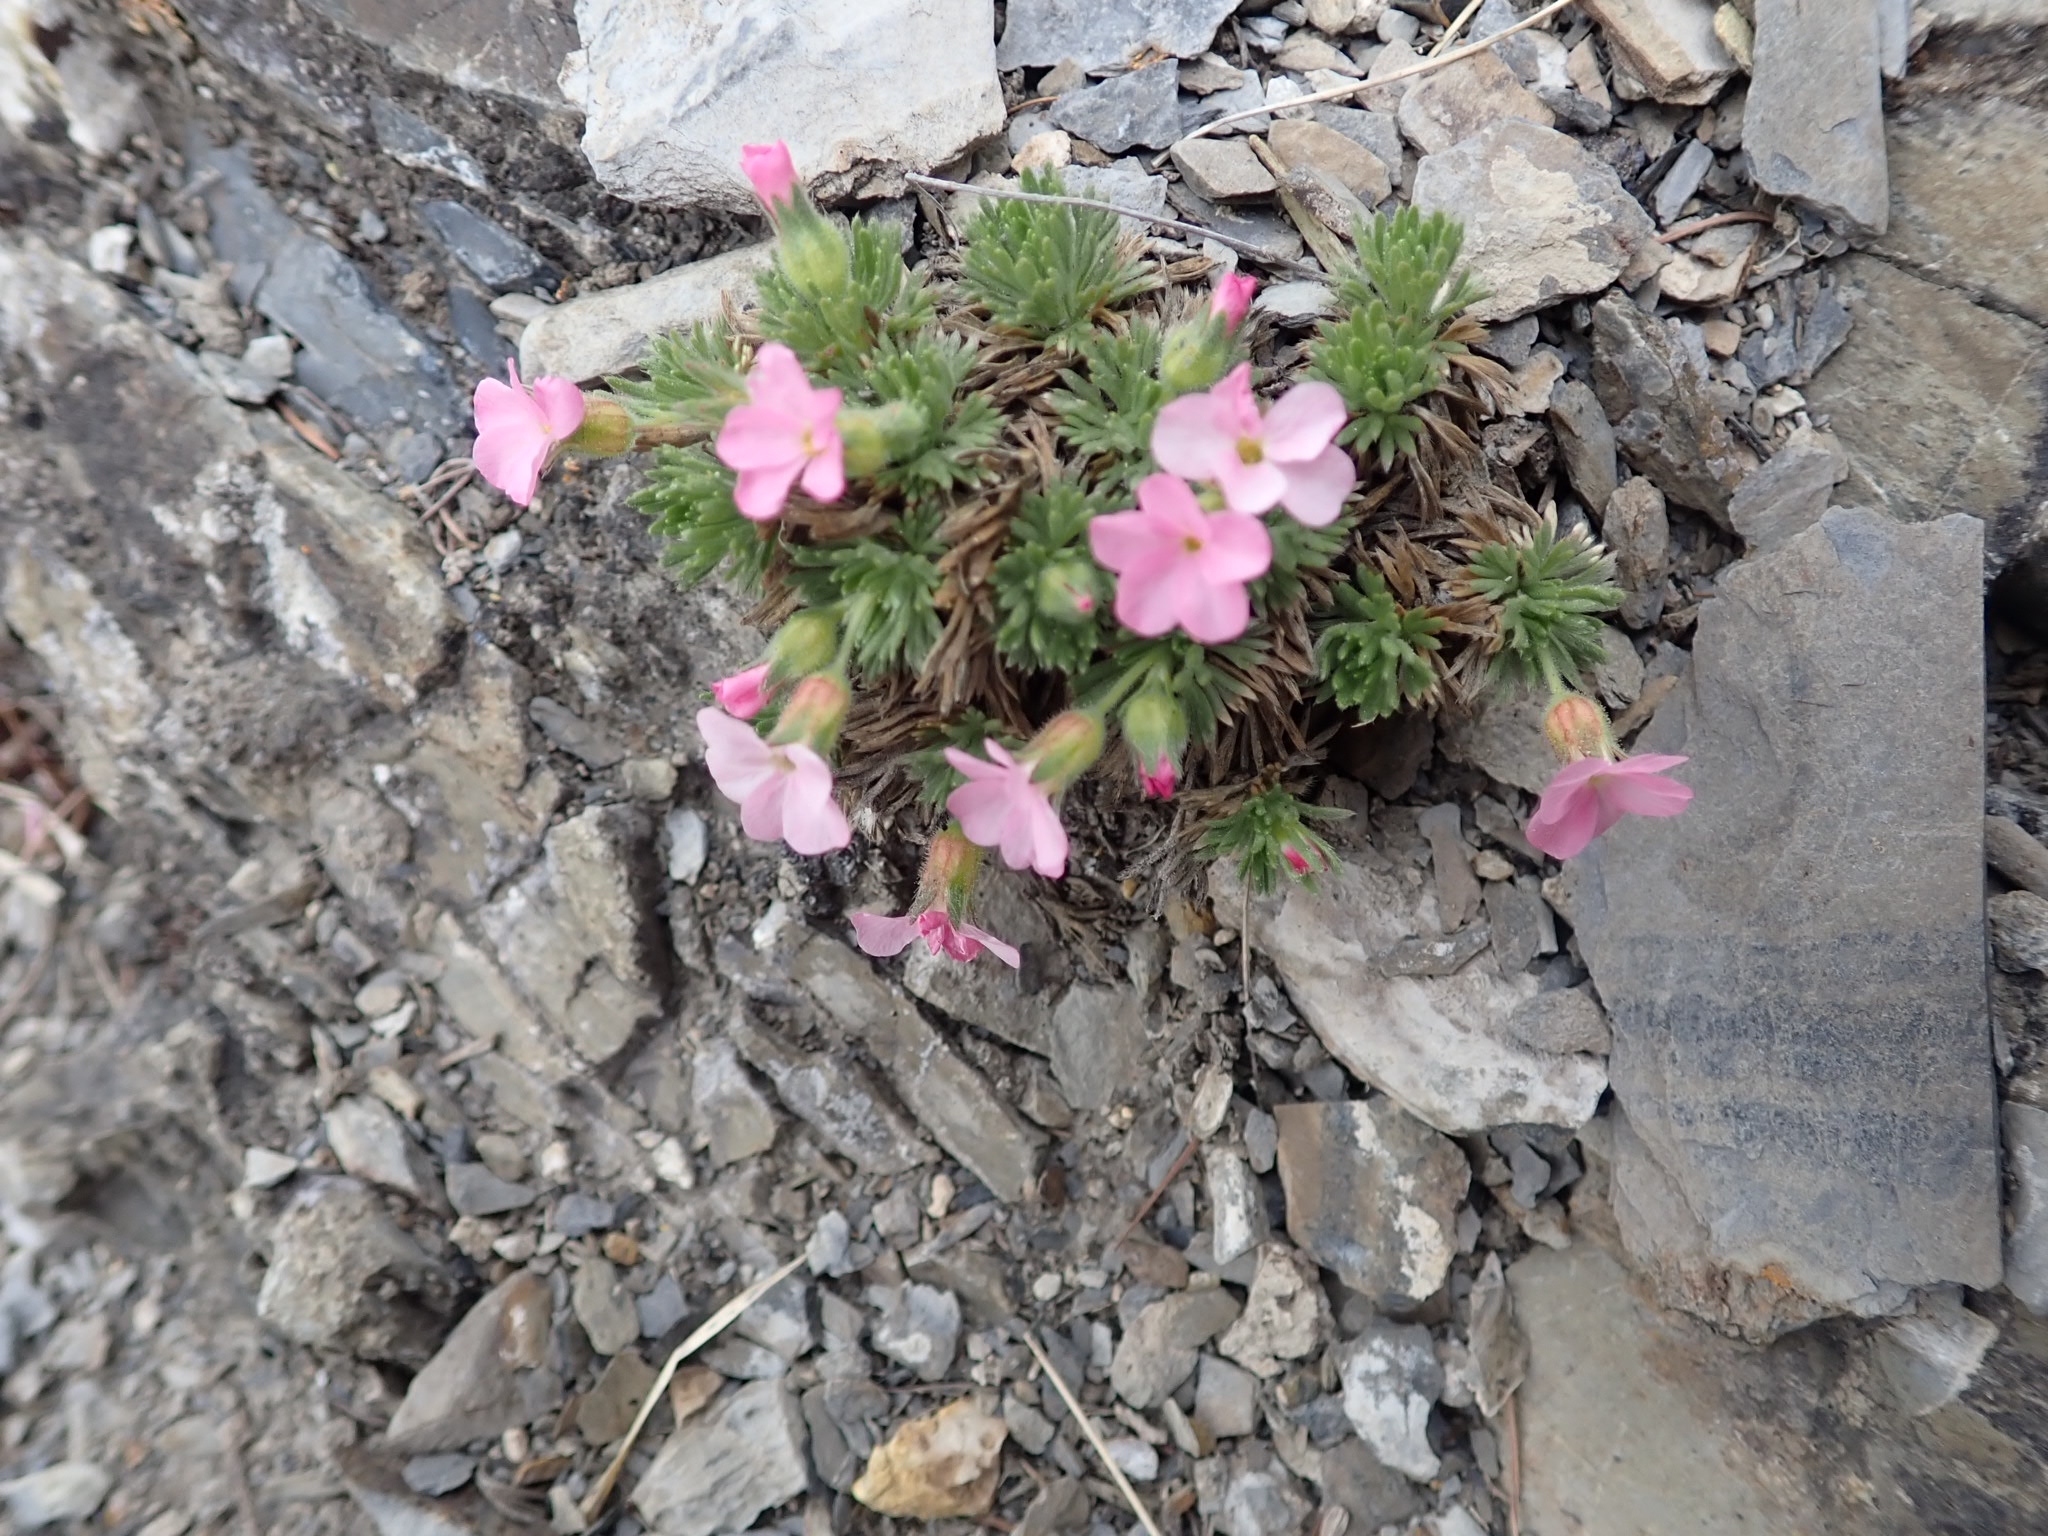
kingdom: Plantae
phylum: Tracheophyta
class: Magnoliopsida
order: Rosales
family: Rosaceae
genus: Chamaerhodos
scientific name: Chamaerhodos altaica
